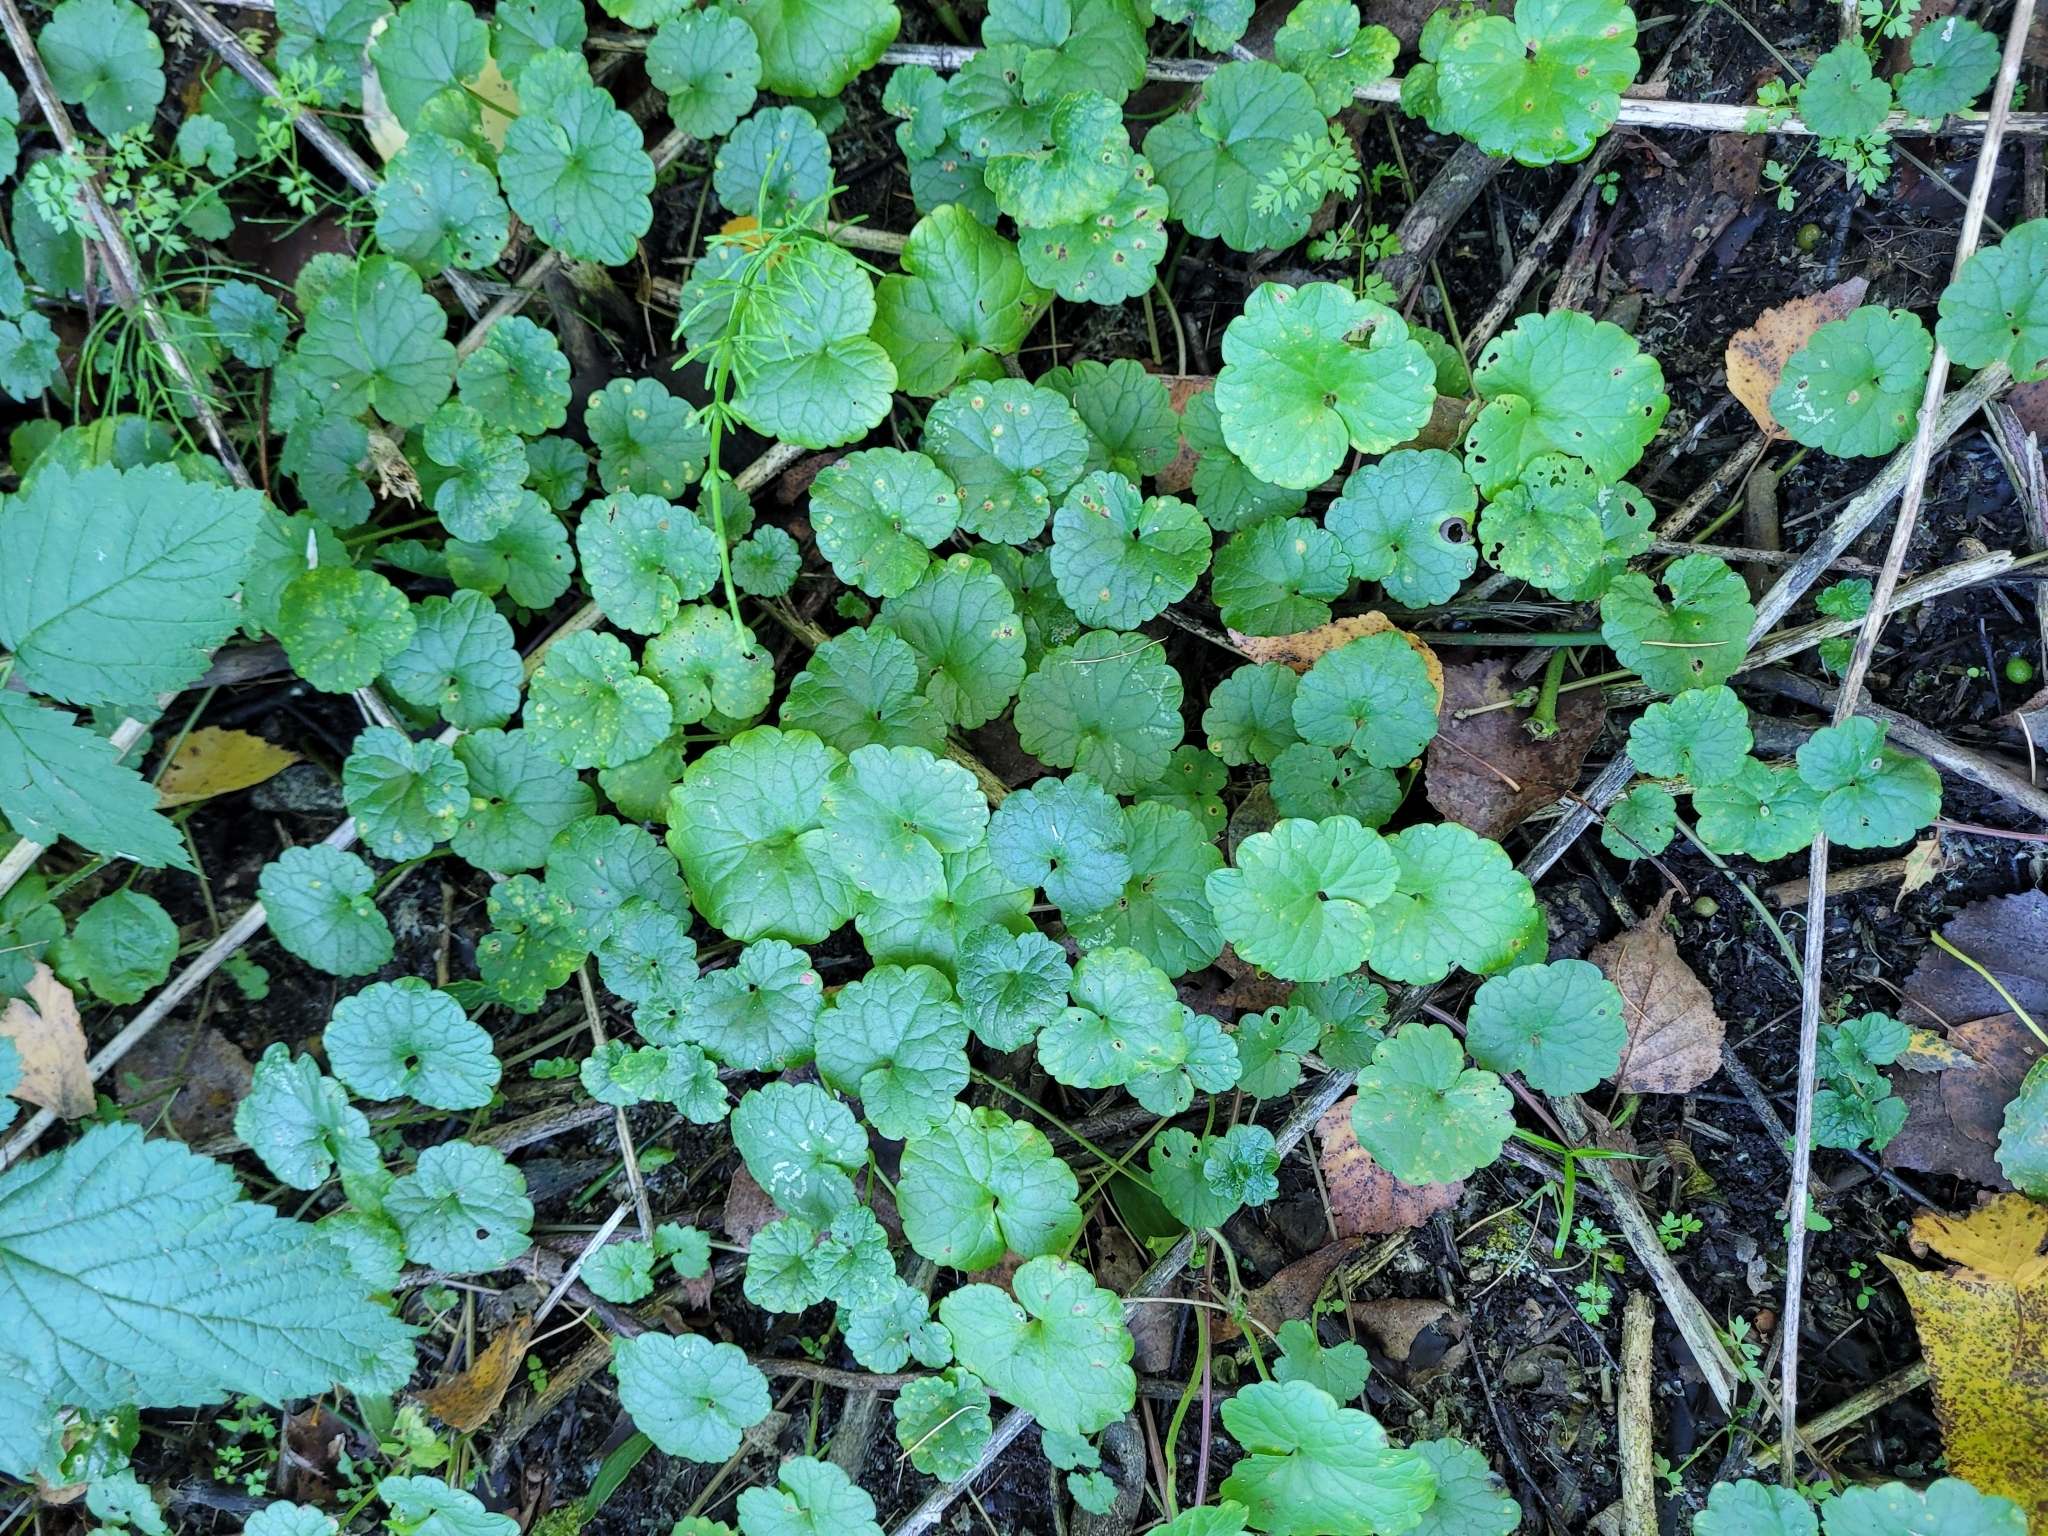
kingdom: Plantae
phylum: Tracheophyta
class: Magnoliopsida
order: Lamiales
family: Lamiaceae
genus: Glechoma
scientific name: Glechoma hederacea
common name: Ground ivy
